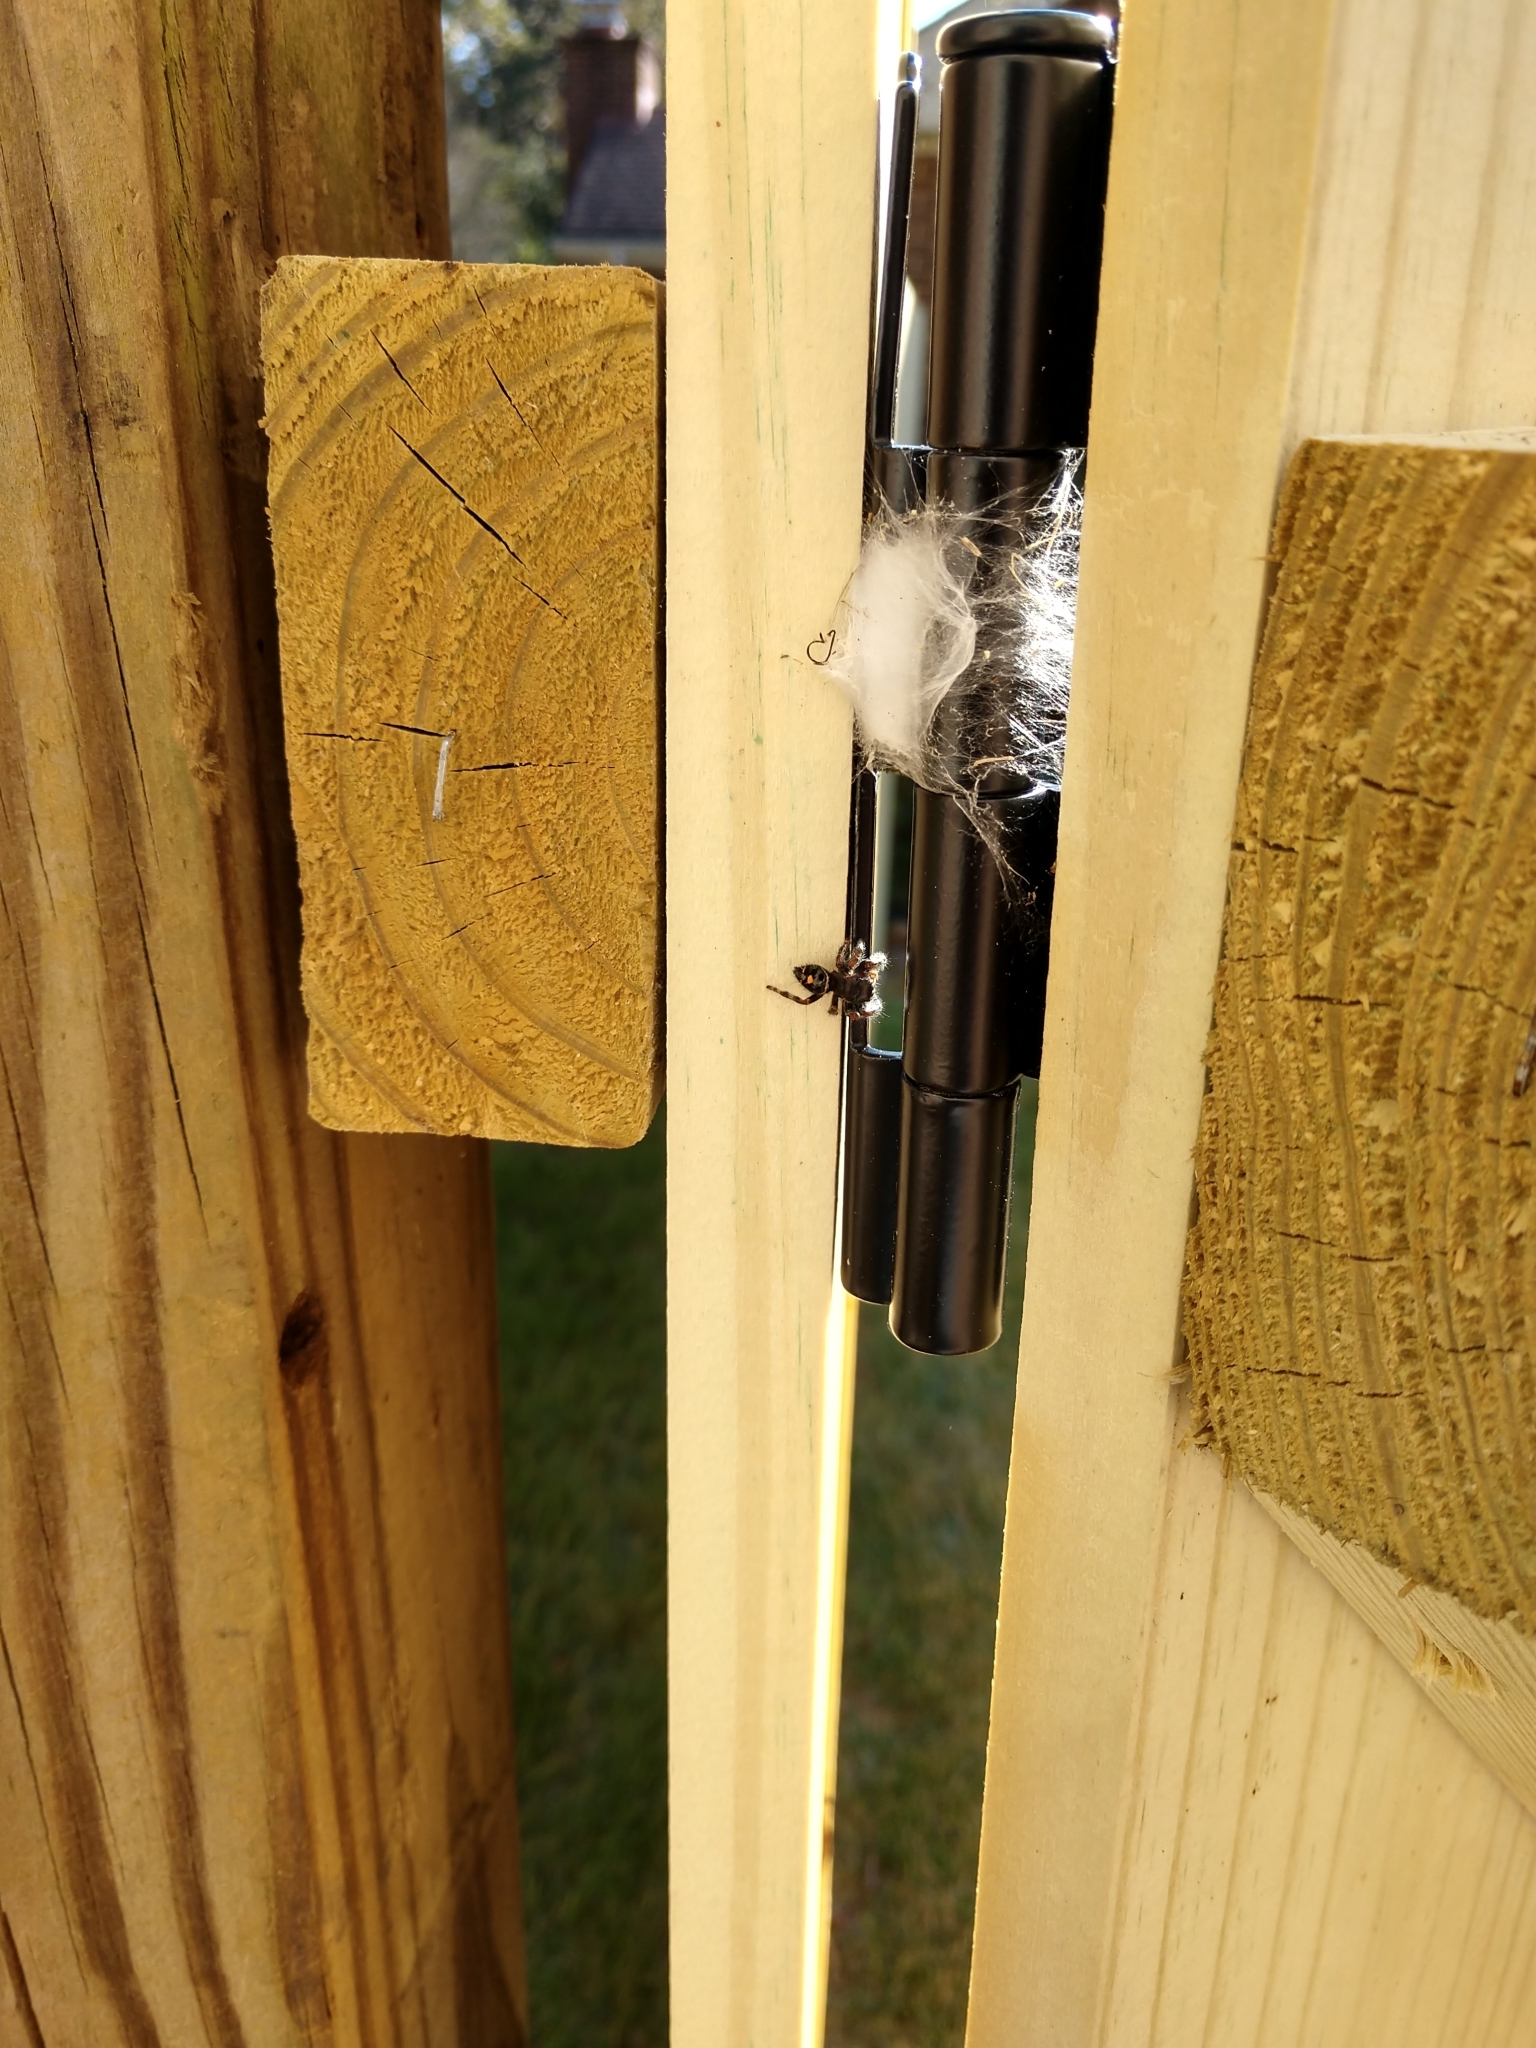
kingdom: Animalia
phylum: Arthropoda
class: Arachnida
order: Araneae
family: Salticidae
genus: Phidippus
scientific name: Phidippus audax
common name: Bold jumper
